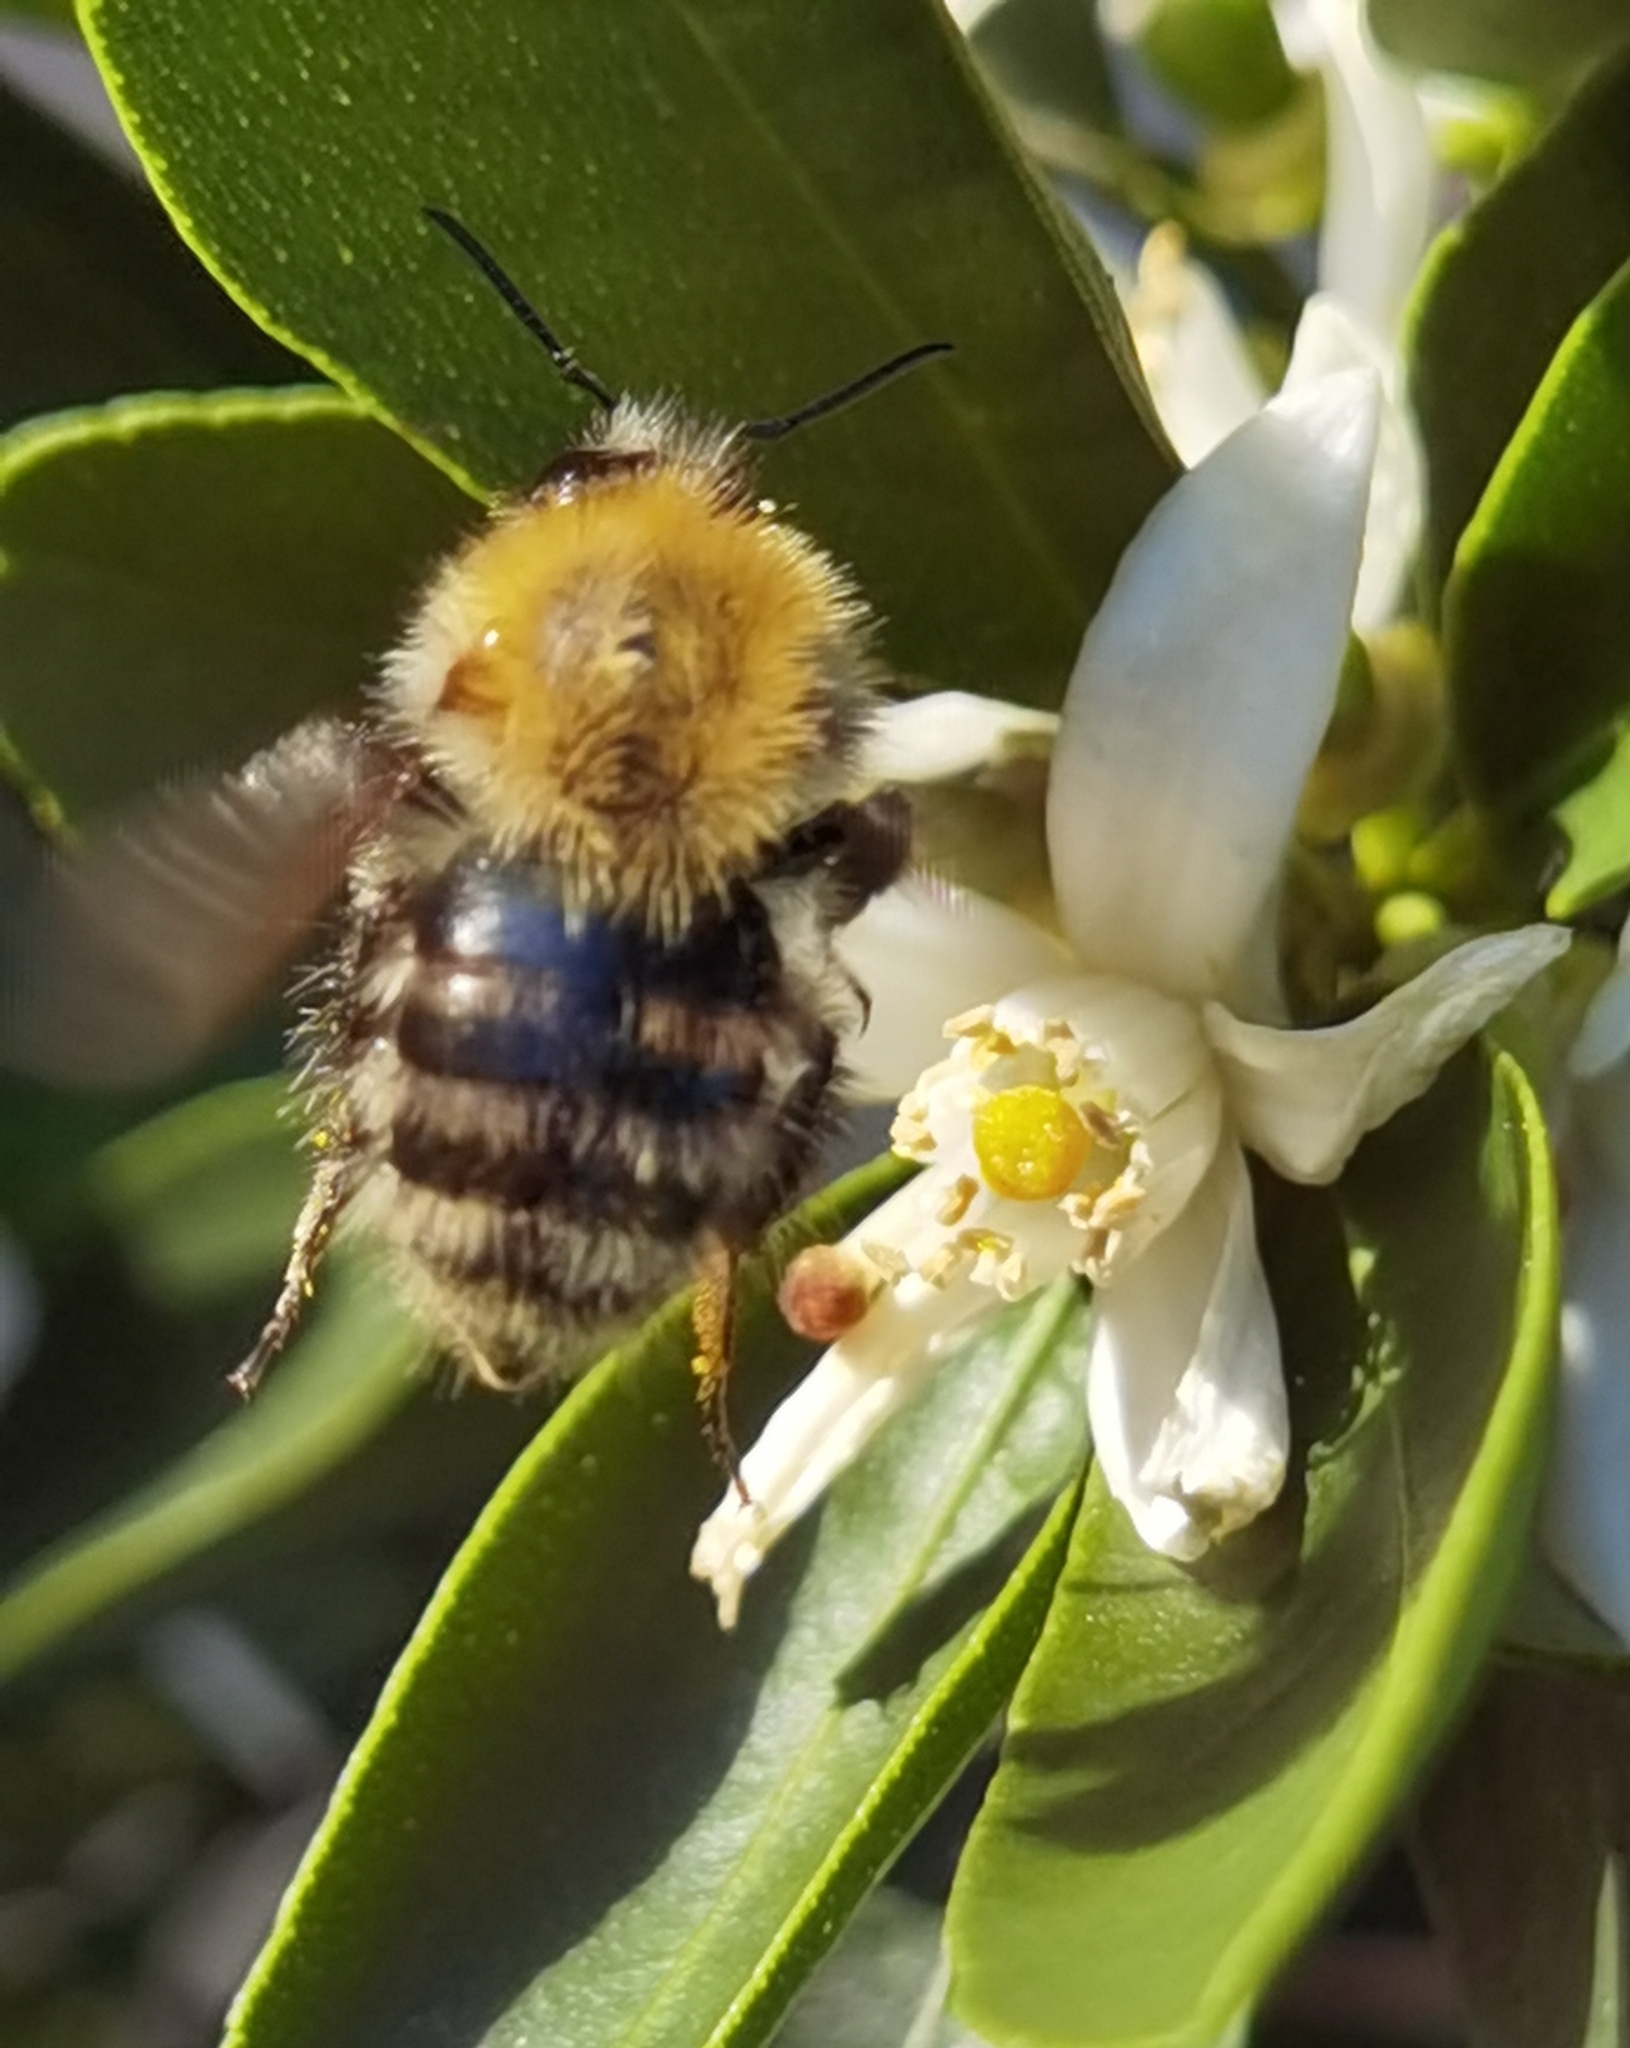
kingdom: Animalia
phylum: Arthropoda
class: Insecta
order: Hymenoptera
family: Apidae
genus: Bombus
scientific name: Bombus pascuorum
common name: Common carder bee
